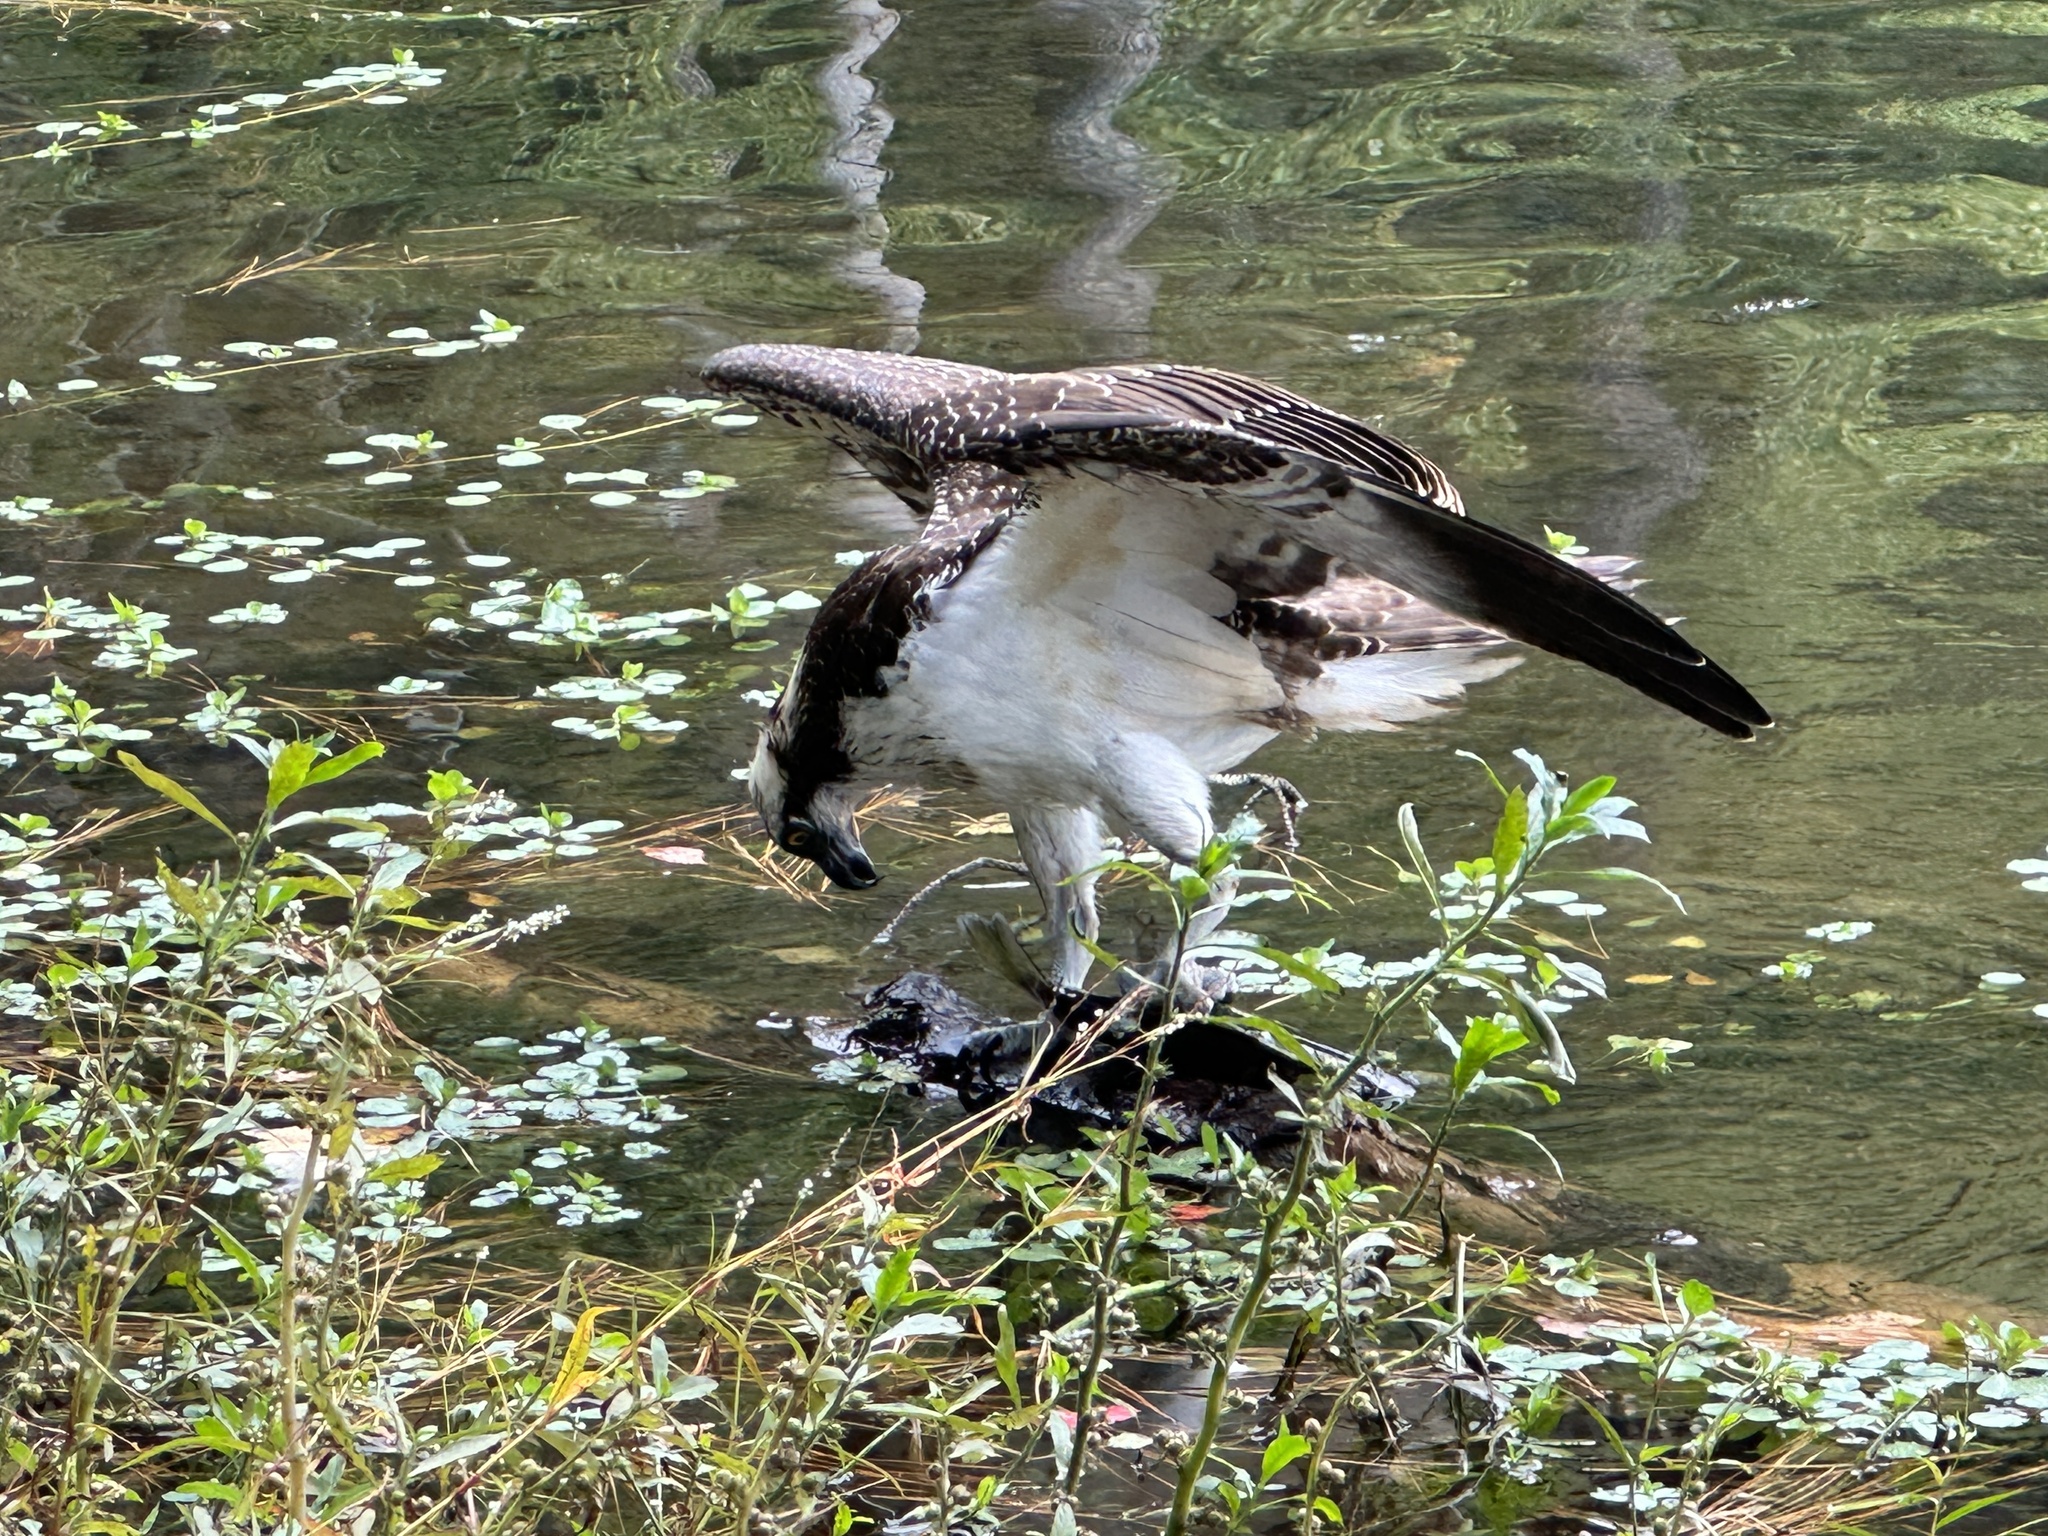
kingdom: Animalia
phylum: Chordata
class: Aves
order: Accipitriformes
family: Pandionidae
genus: Pandion
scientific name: Pandion haliaetus
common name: Osprey
